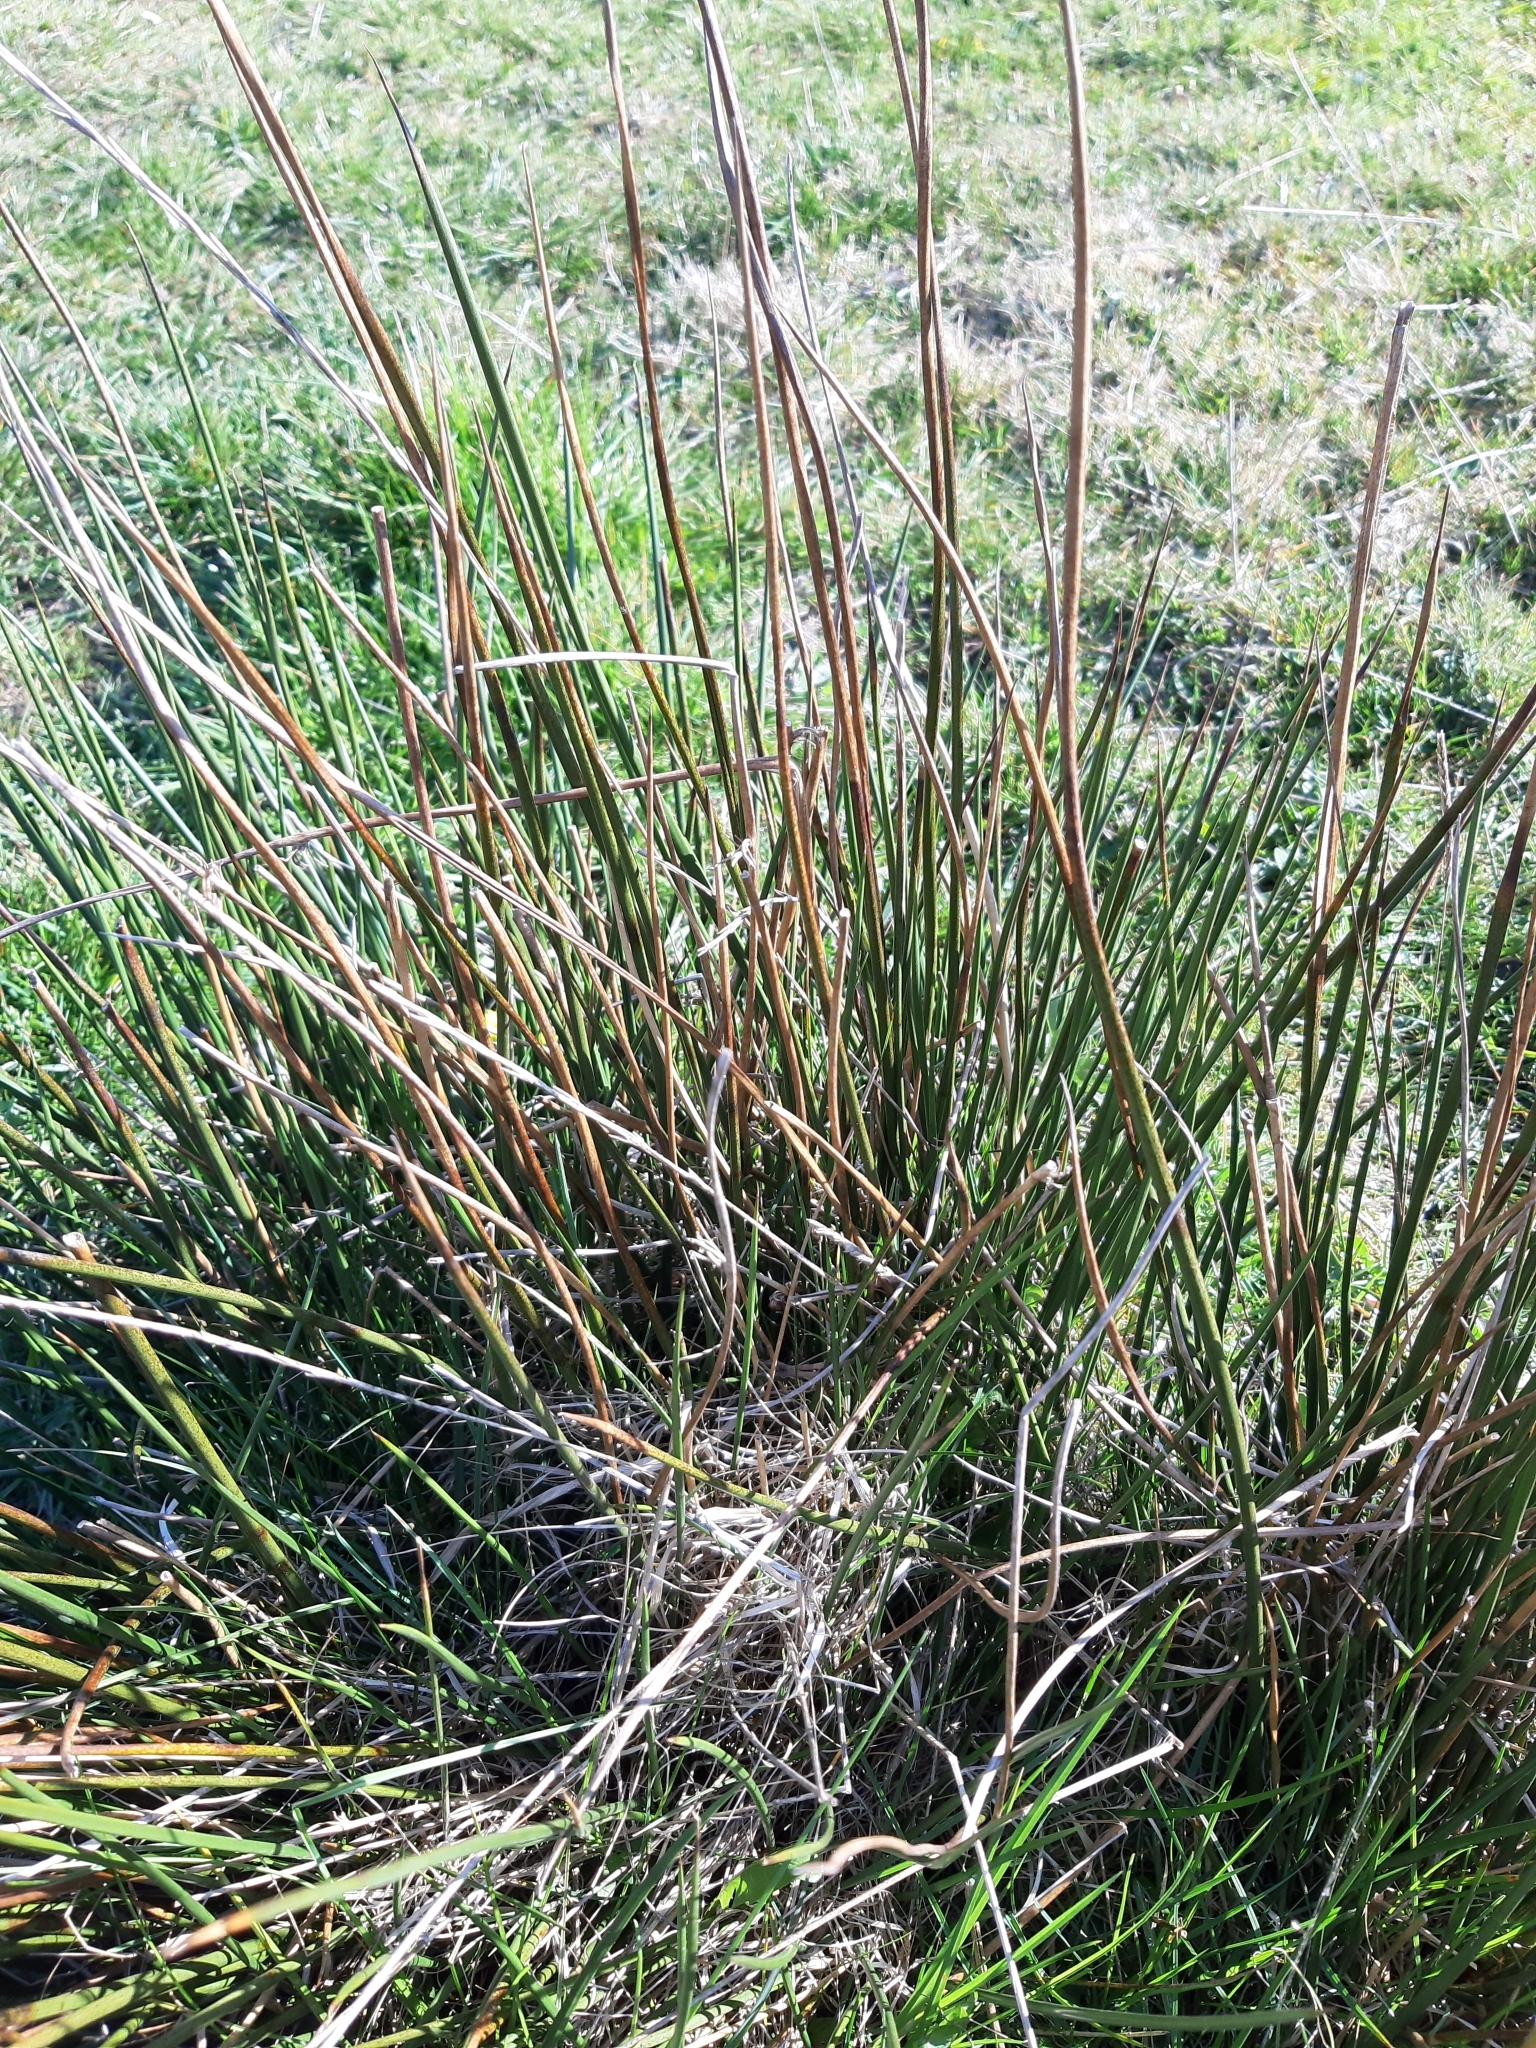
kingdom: Plantae
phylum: Tracheophyta
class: Liliopsida
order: Poales
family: Juncaceae
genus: Juncus
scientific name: Juncus effusus
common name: Soft rush
